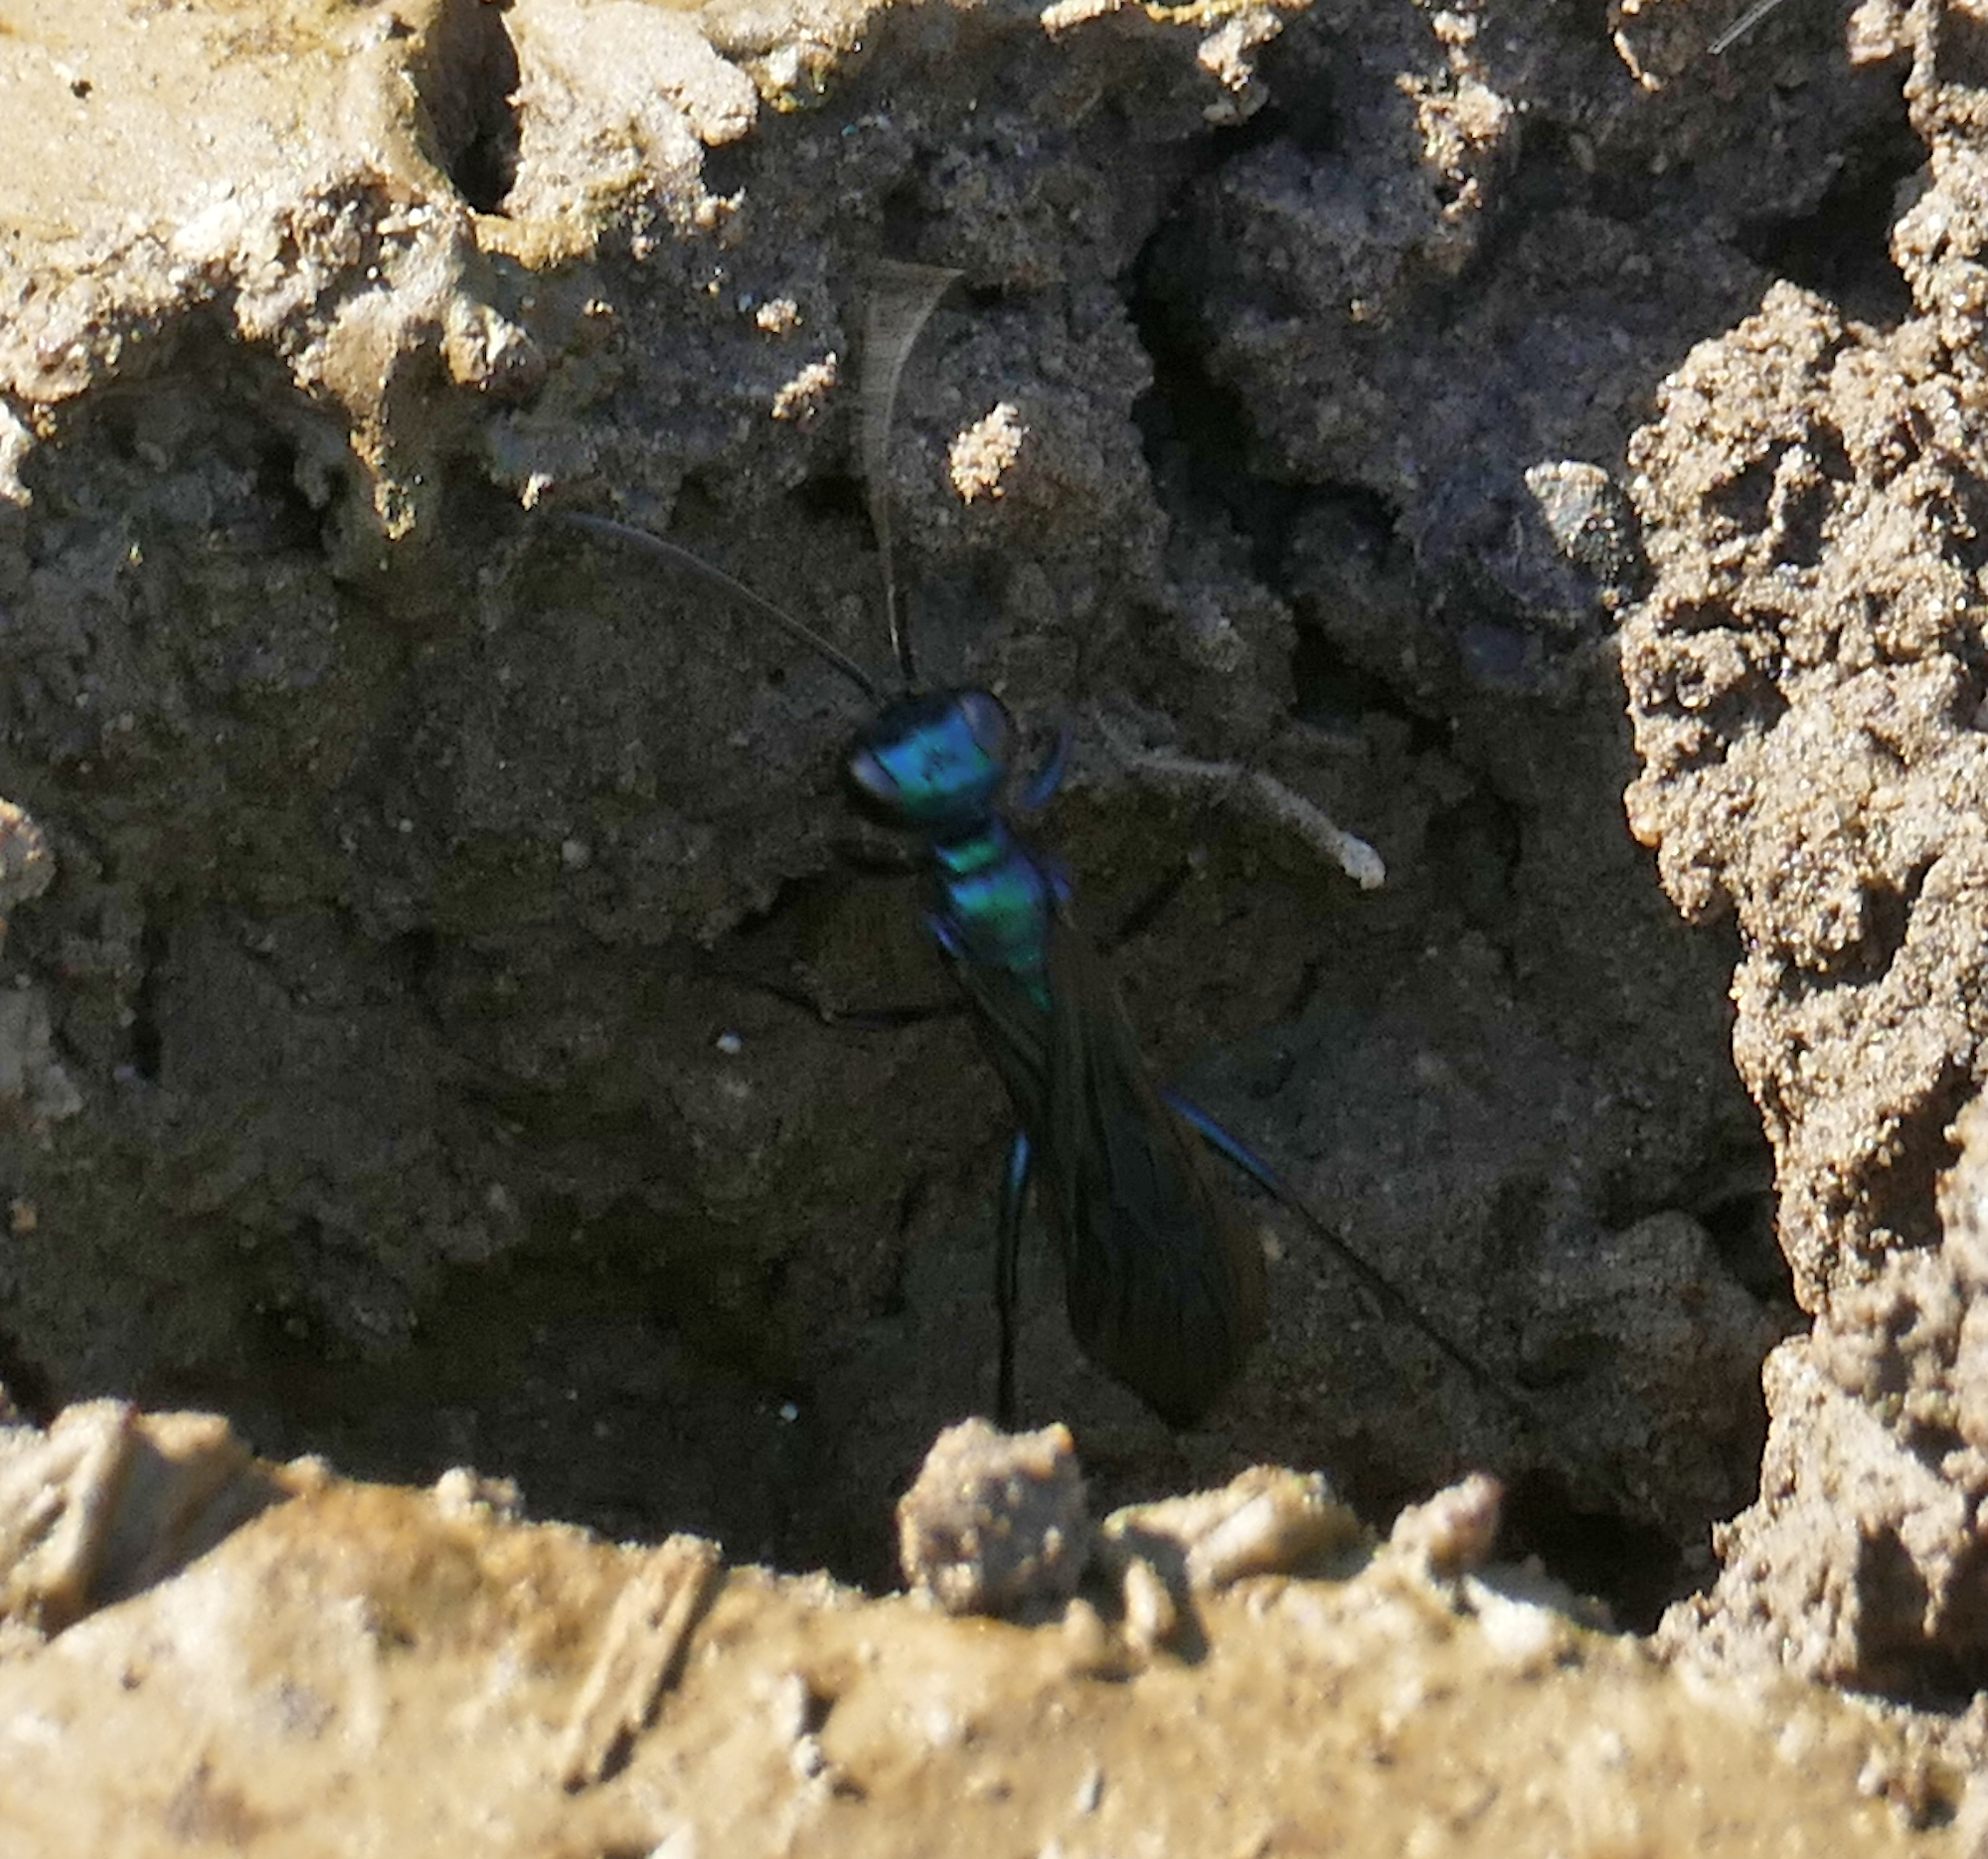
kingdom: Animalia
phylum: Arthropoda
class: Insecta
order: Hymenoptera
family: Sphecidae
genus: Chlorion
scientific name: Chlorion aerarium
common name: Steel-blue cricket hunter
